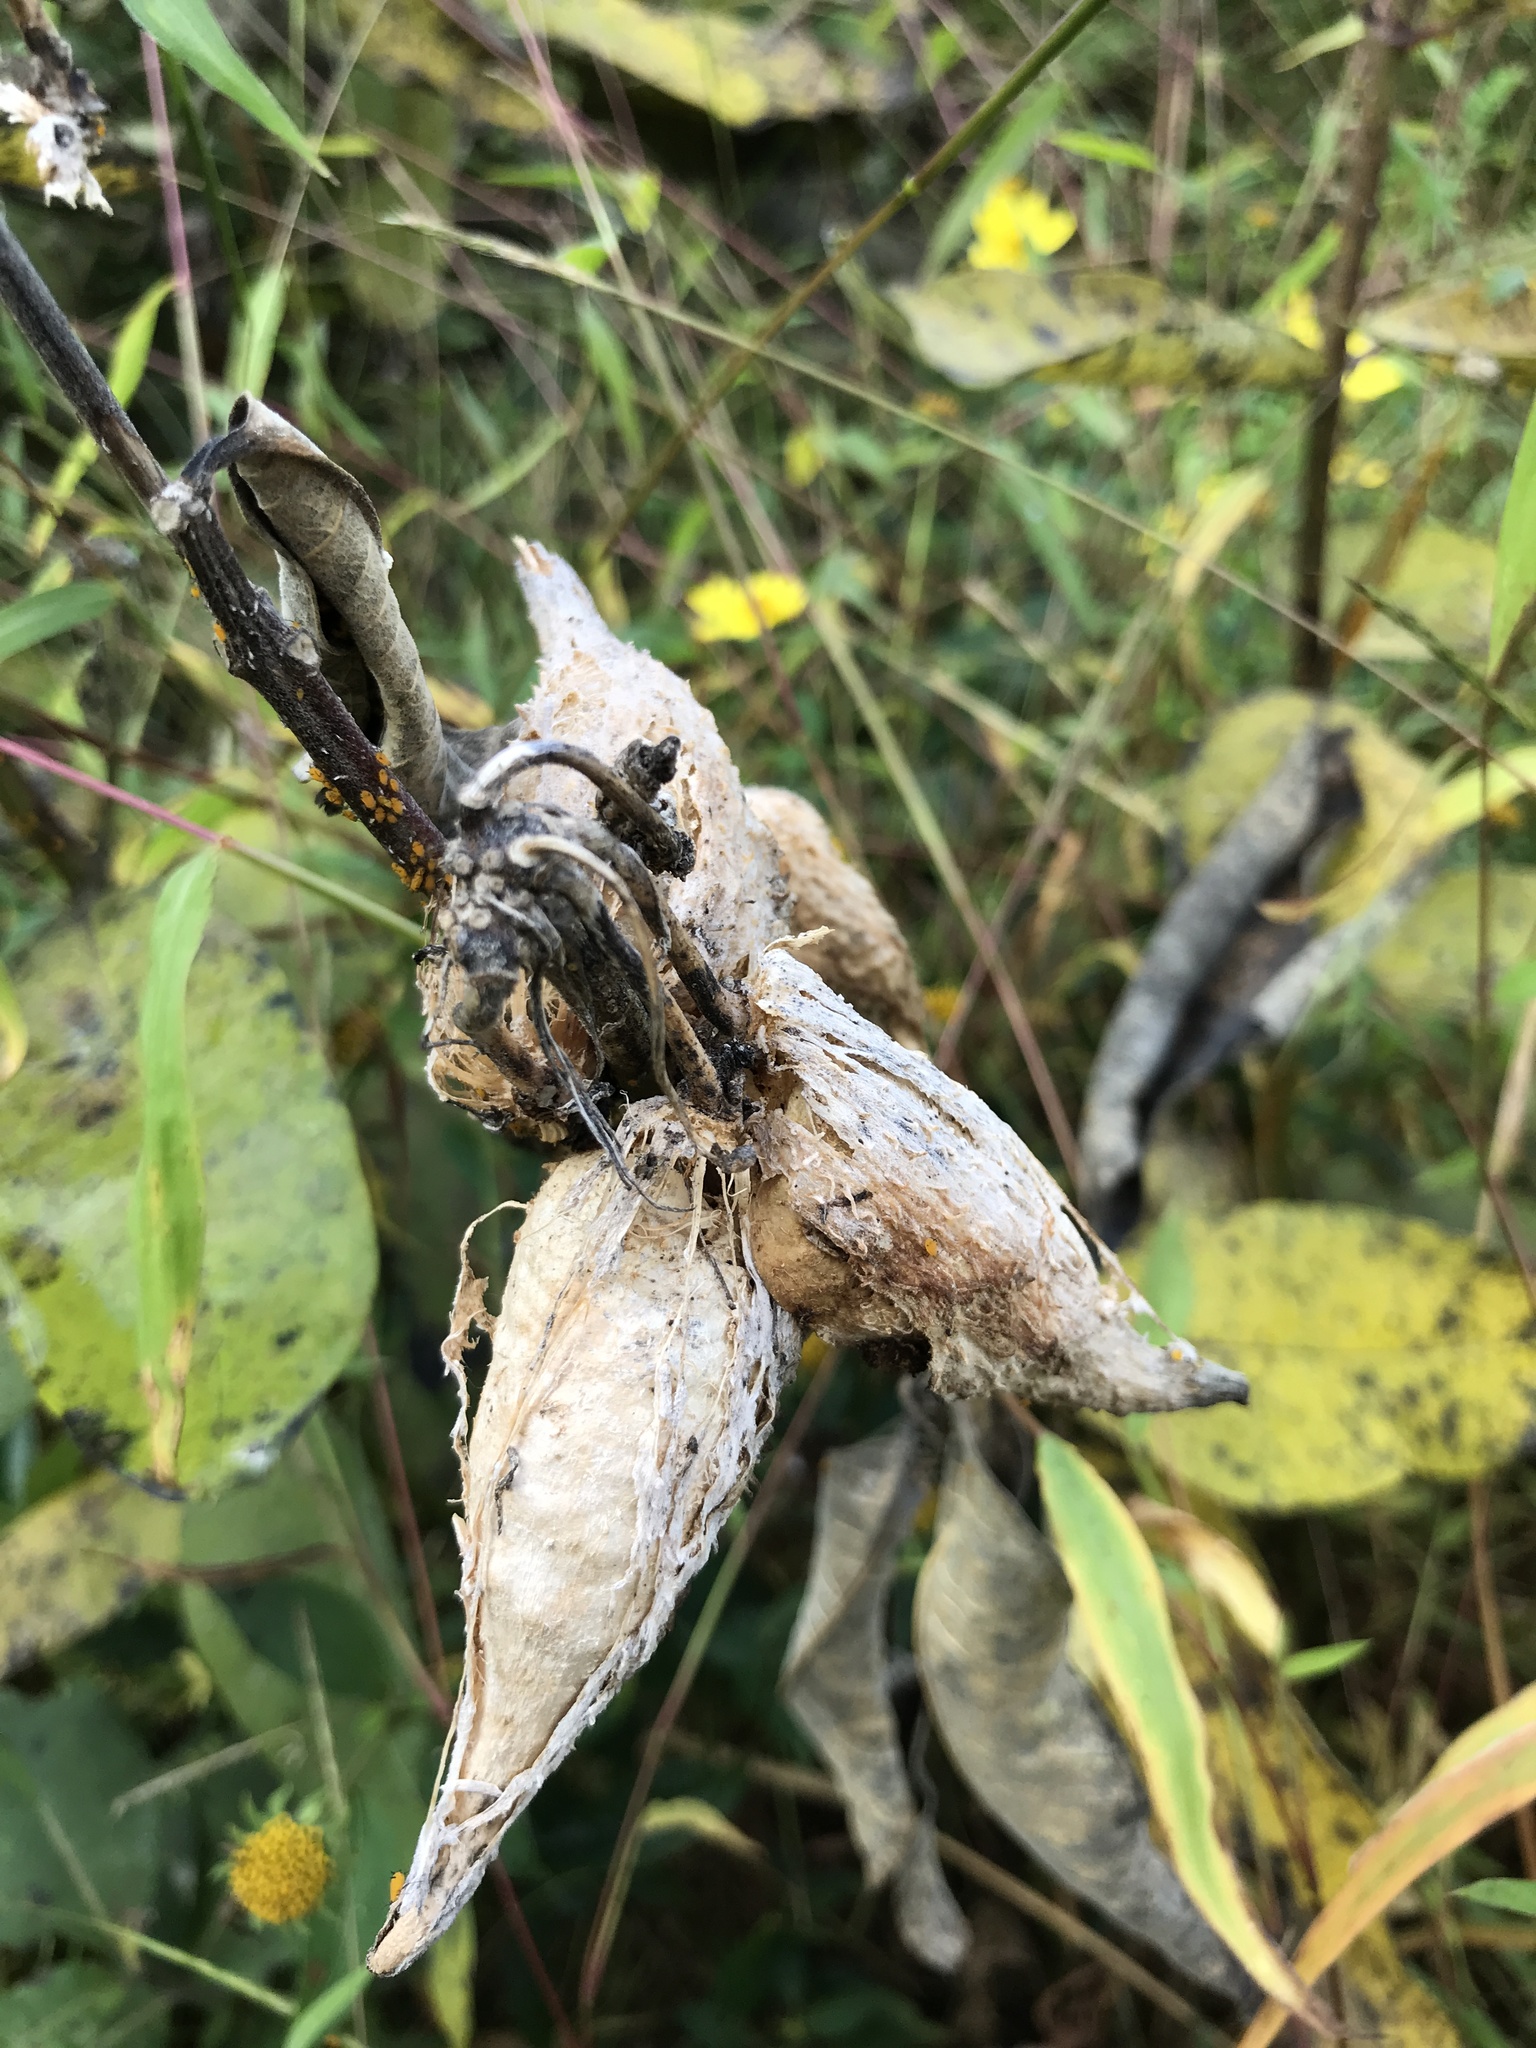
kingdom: Plantae
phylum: Tracheophyta
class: Magnoliopsida
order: Gentianales
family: Apocynaceae
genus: Asclepias
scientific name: Asclepias syriaca
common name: Common milkweed
